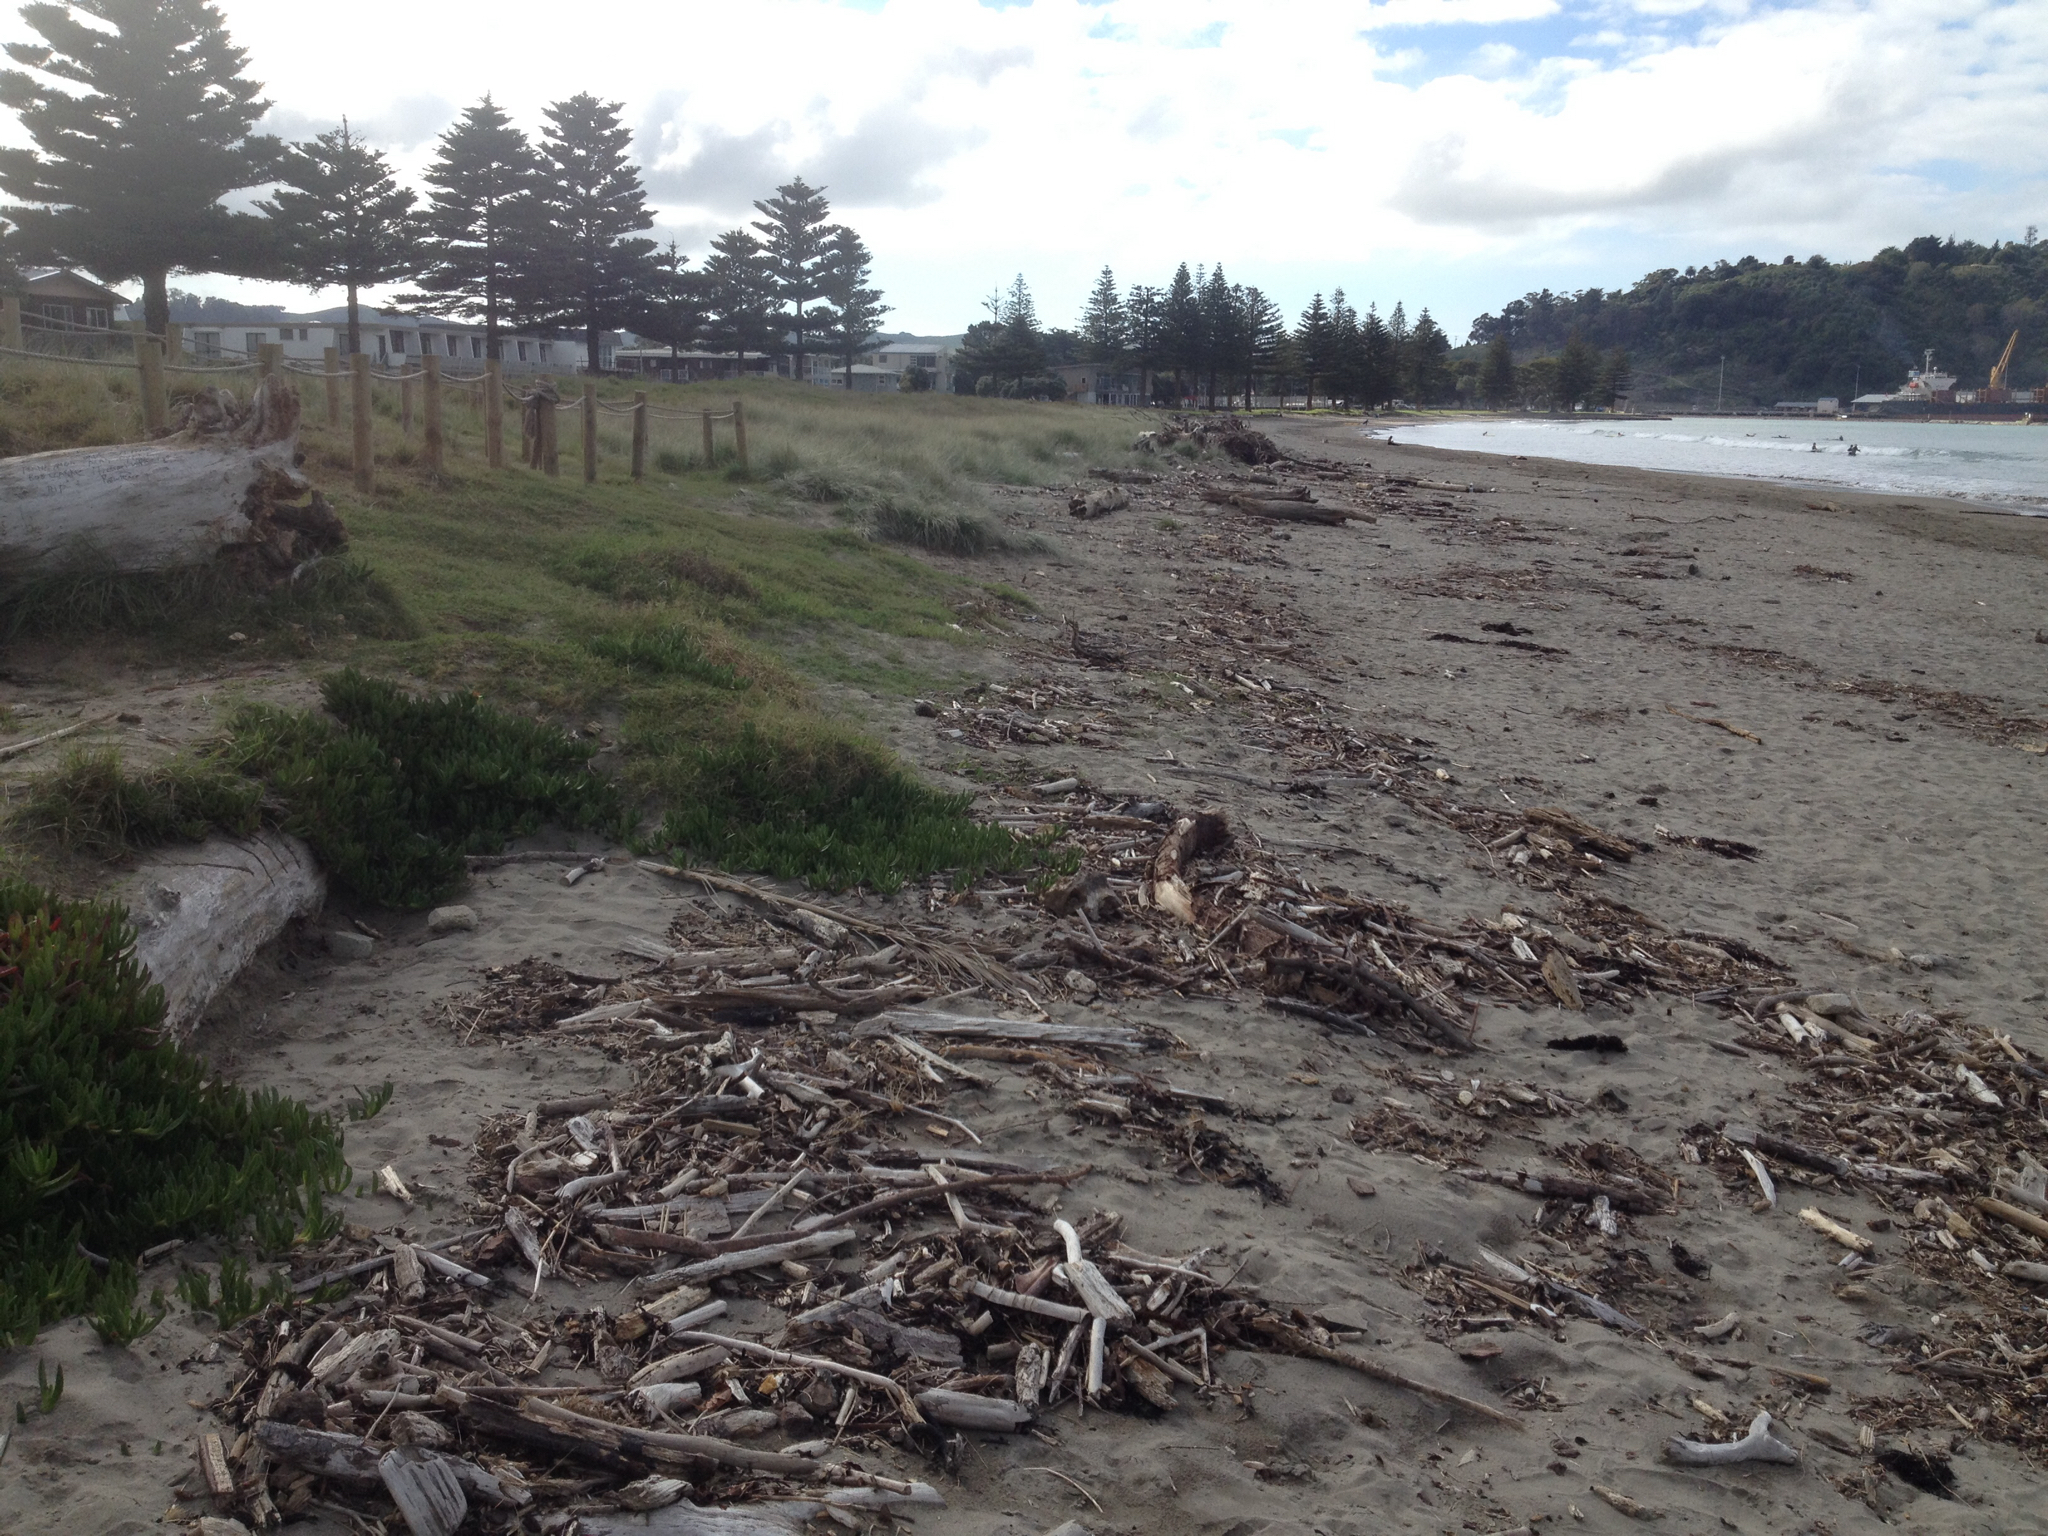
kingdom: Plantae
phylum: Tracheophyta
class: Liliopsida
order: Poales
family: Poaceae
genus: Spinifex
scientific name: Spinifex sericeus
